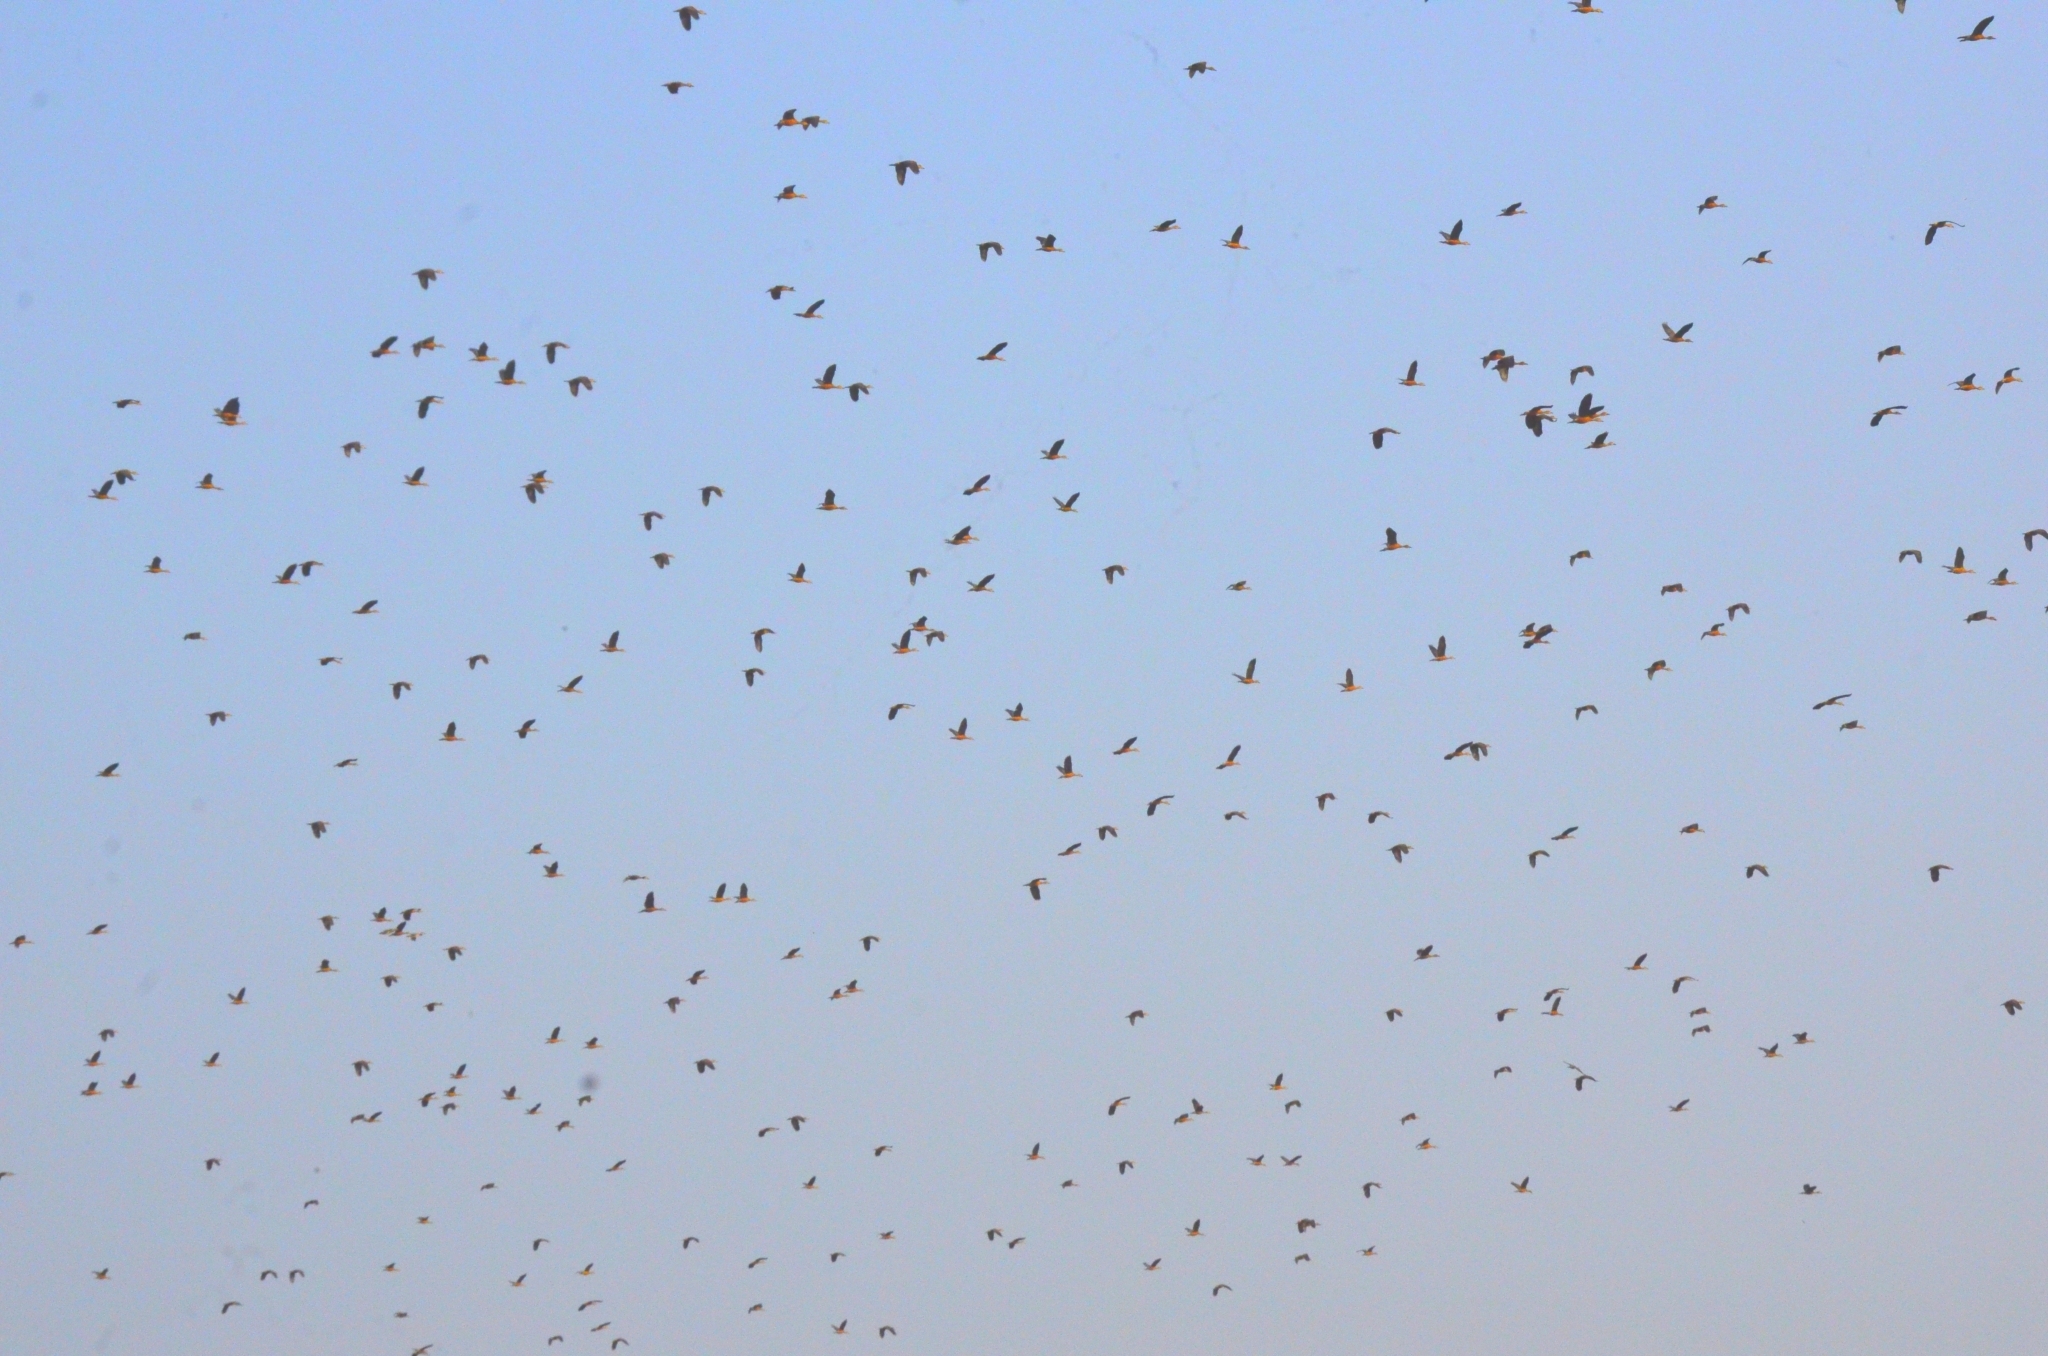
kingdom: Animalia
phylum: Chordata
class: Aves
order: Anseriformes
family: Anatidae
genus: Dendrocygna
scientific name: Dendrocygna javanica
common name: Lesser whistling-duck
